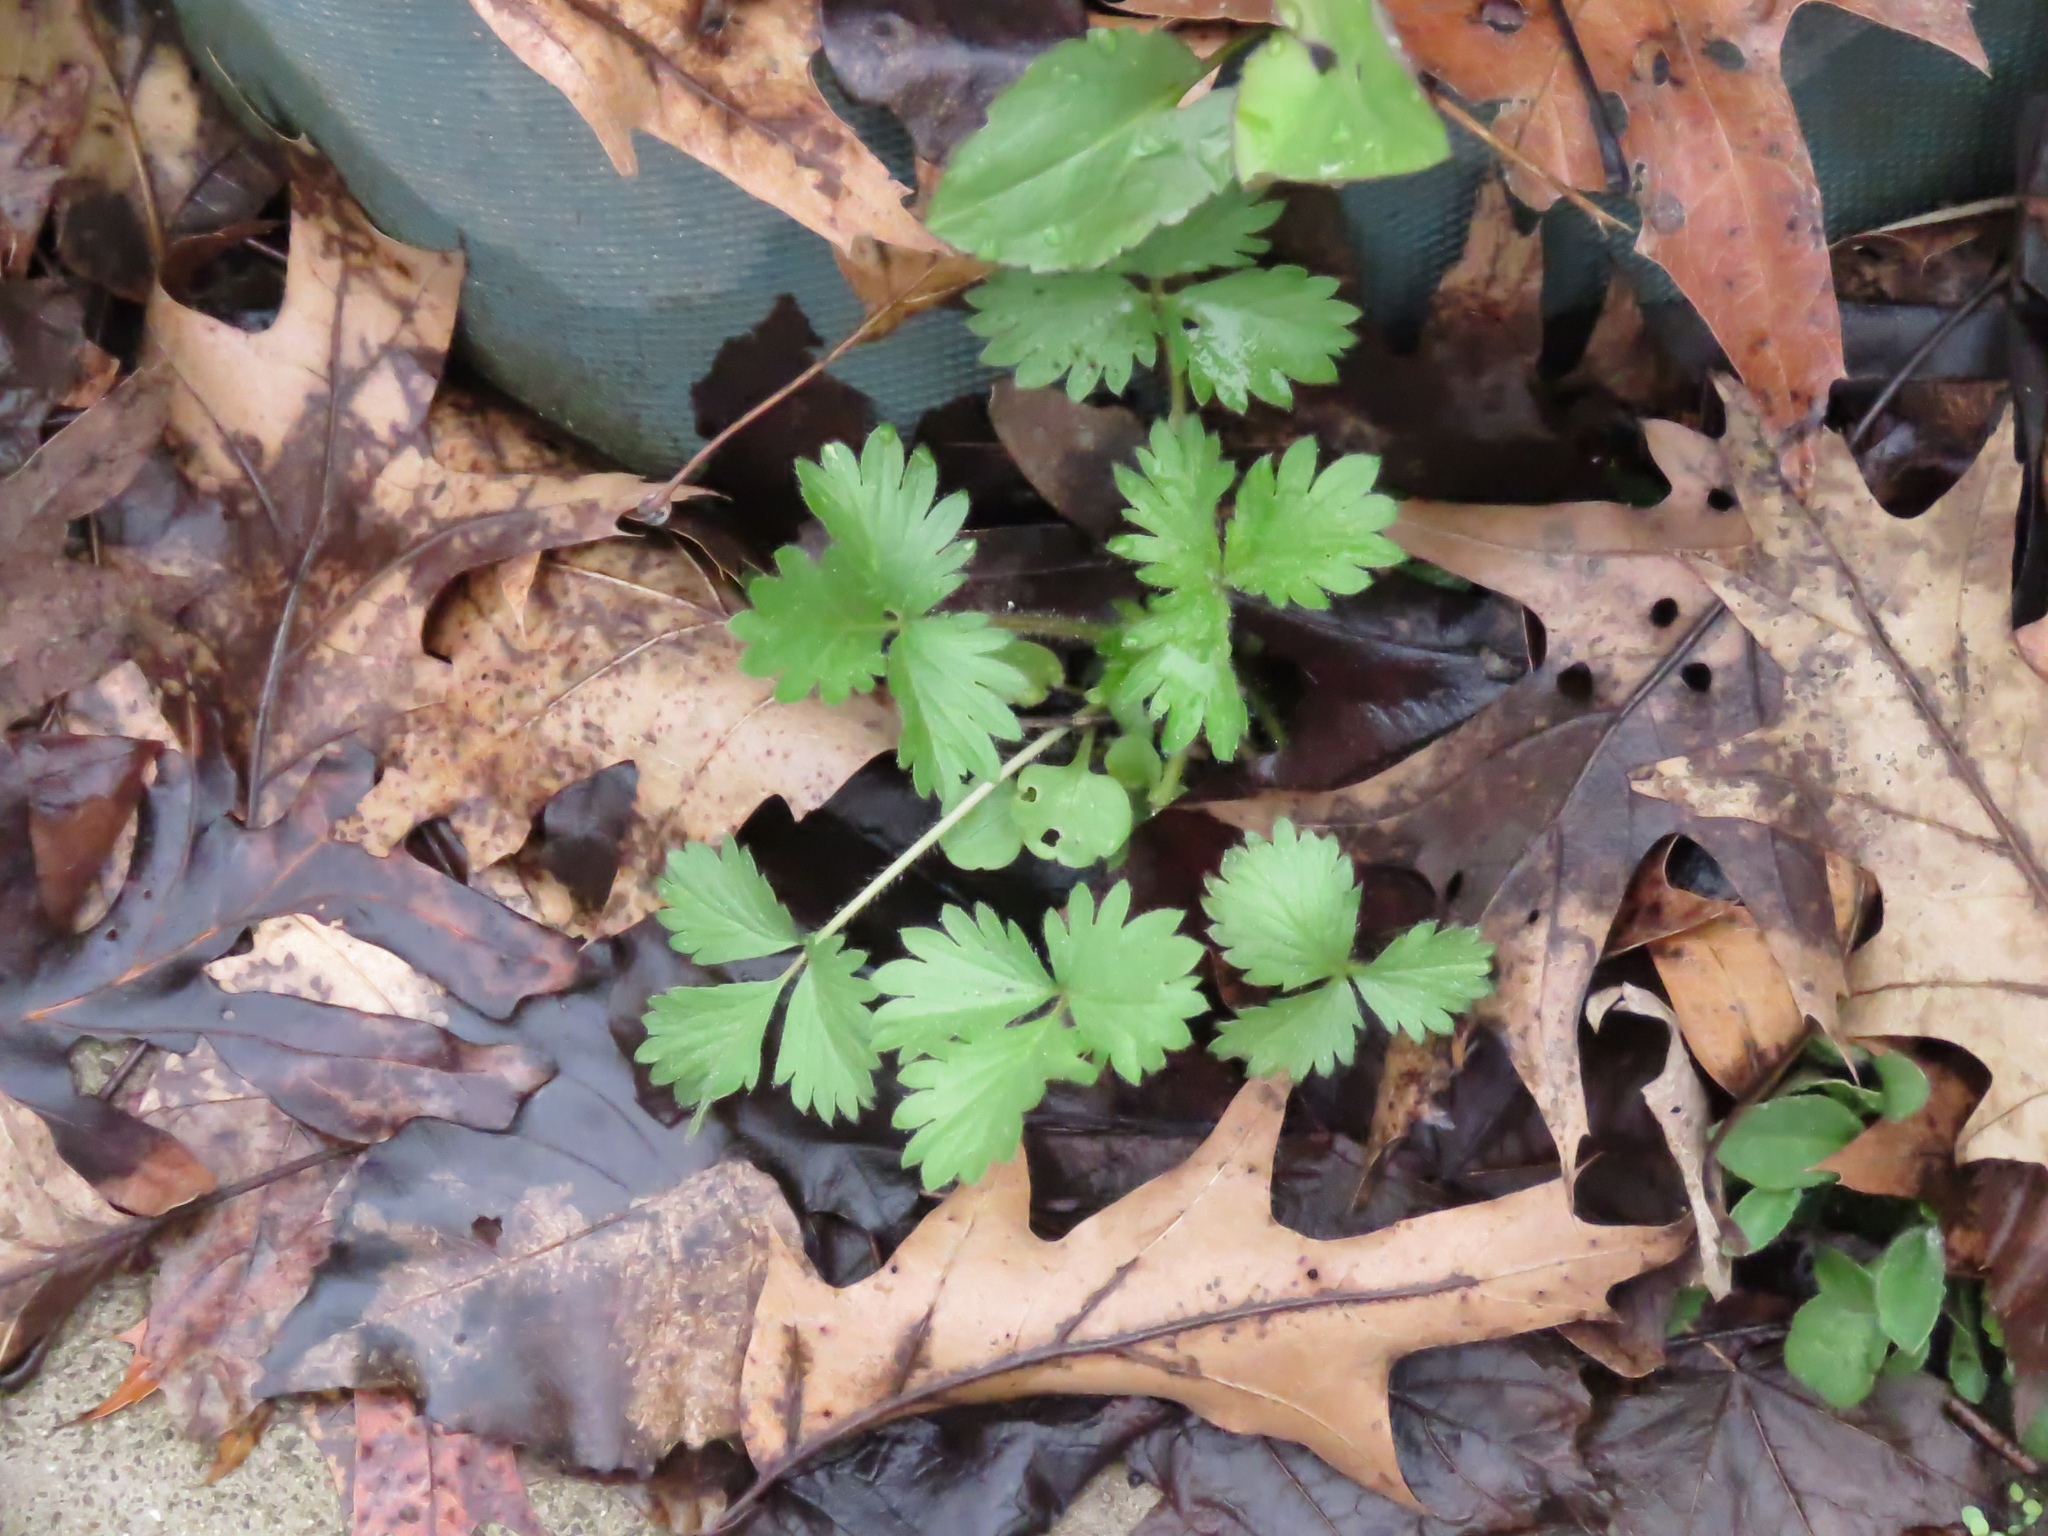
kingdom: Plantae
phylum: Tracheophyta
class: Magnoliopsida
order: Rosales
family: Rosaceae
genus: Potentilla
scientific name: Potentilla indica
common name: Yellow-flowered strawberry
